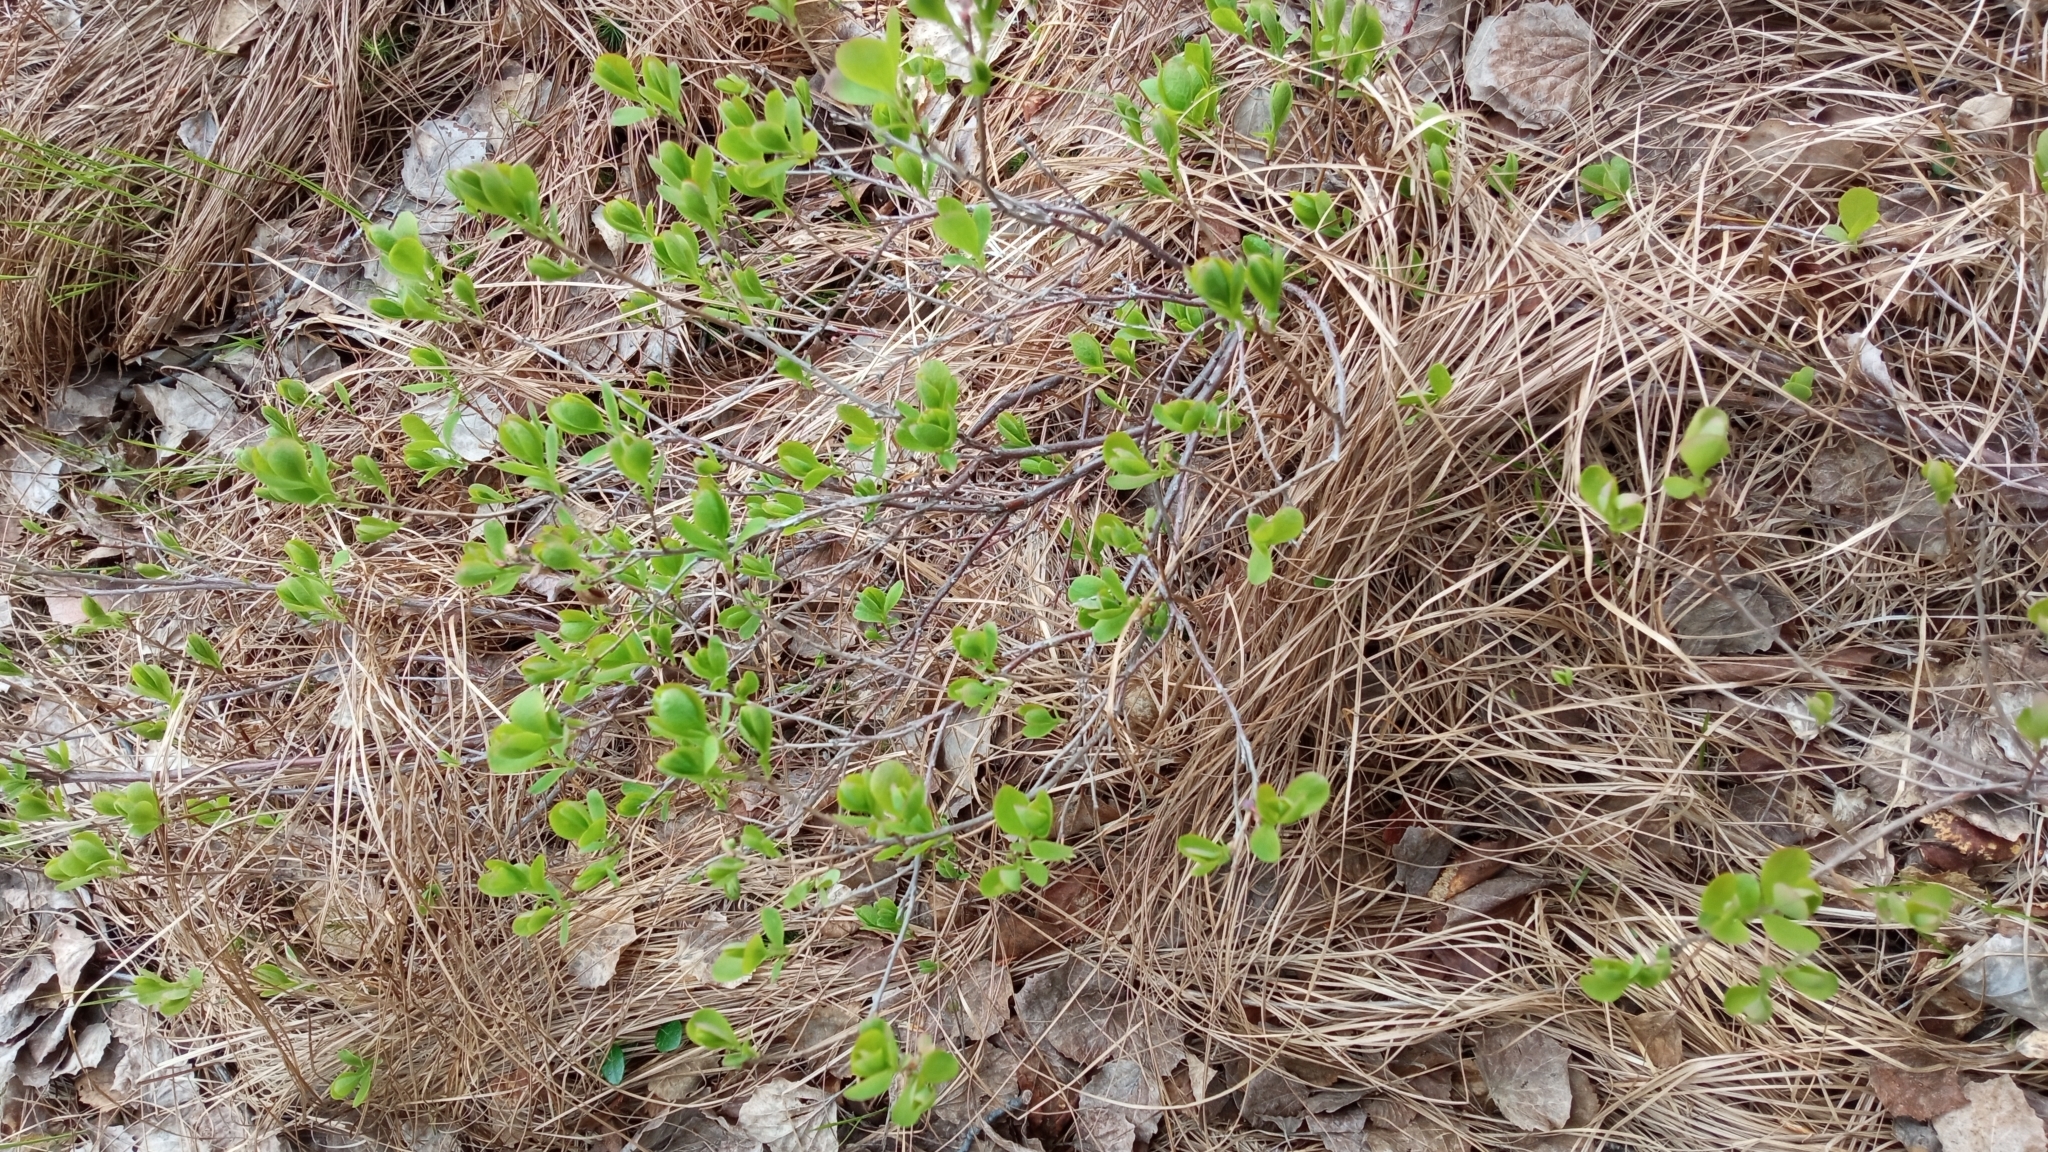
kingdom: Plantae
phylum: Tracheophyta
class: Magnoliopsida
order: Ericales
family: Ericaceae
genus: Vaccinium
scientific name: Vaccinium uliginosum
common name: Bog bilberry
